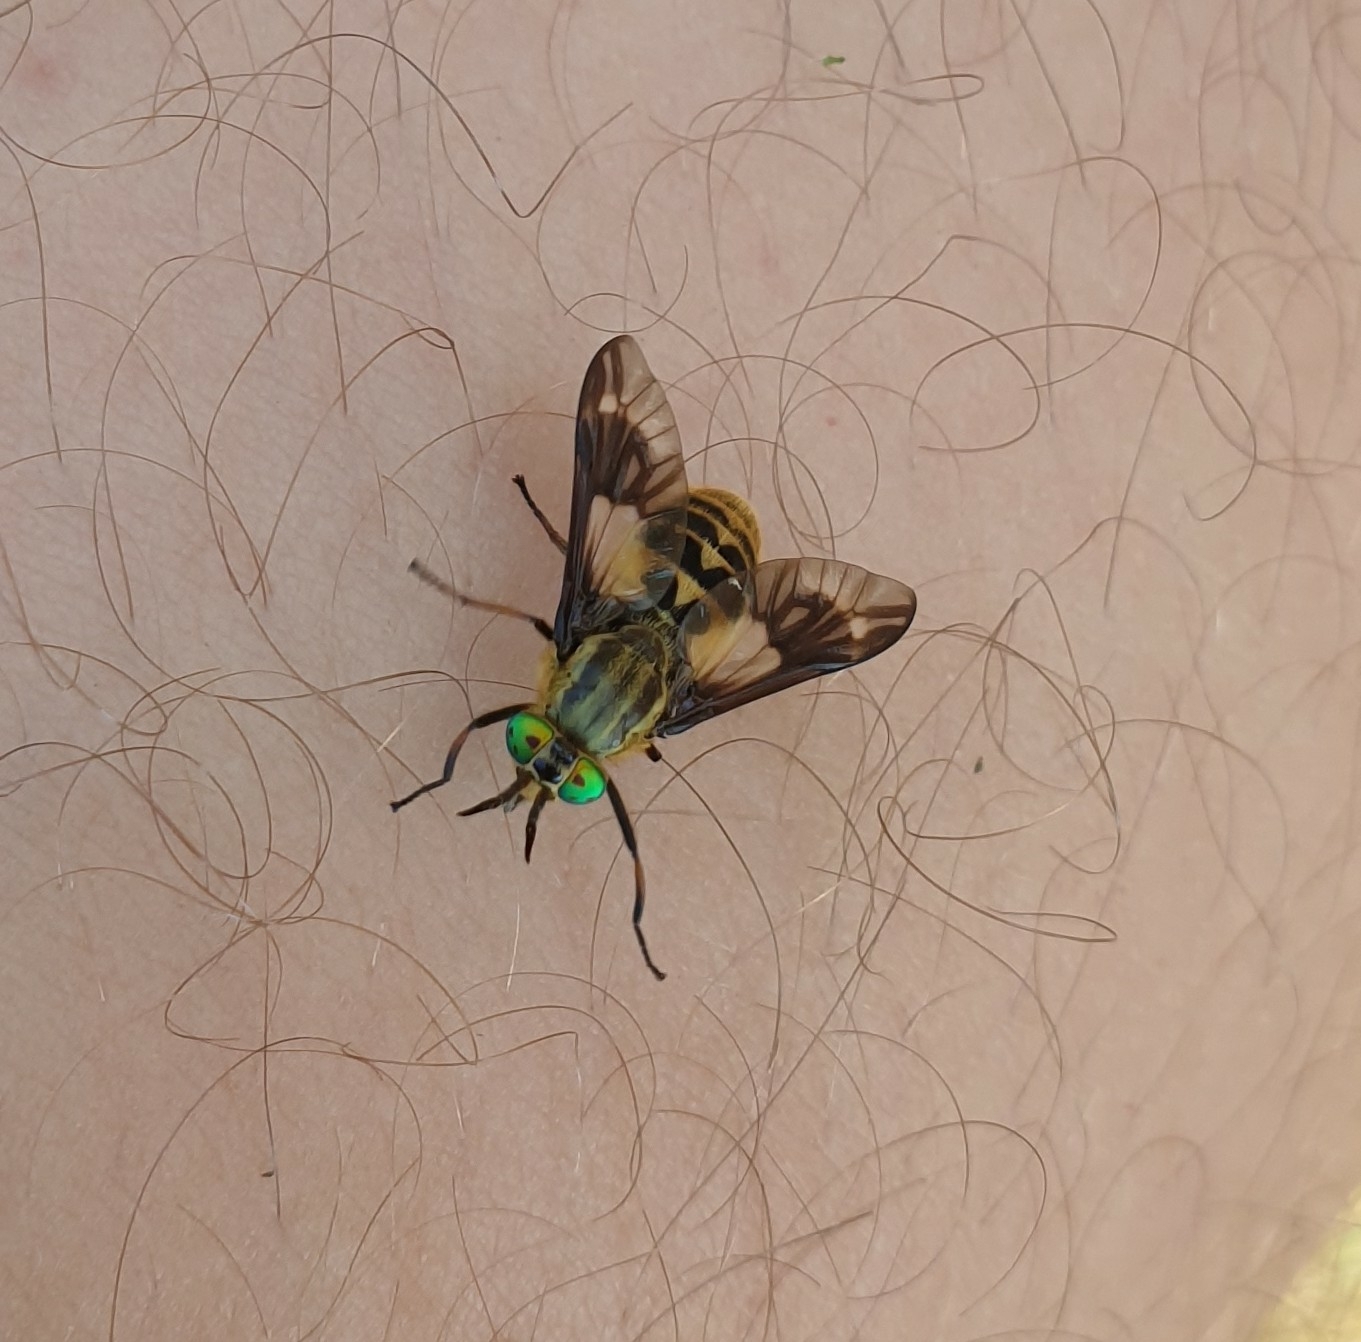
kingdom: Animalia
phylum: Arthropoda
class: Insecta
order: Diptera
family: Tabanidae
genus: Chrysops
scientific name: Chrysops relictus
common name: Twin-lobed deerfly
